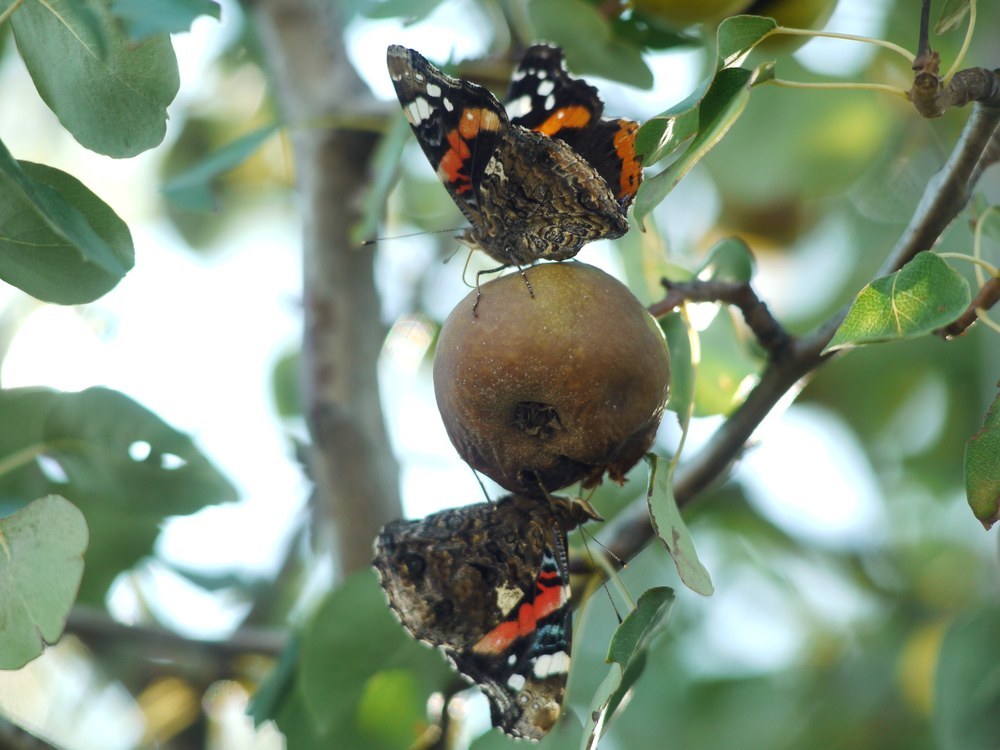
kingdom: Animalia
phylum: Arthropoda
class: Insecta
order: Lepidoptera
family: Nymphalidae
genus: Vanessa
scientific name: Vanessa atalanta
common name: Red admiral
